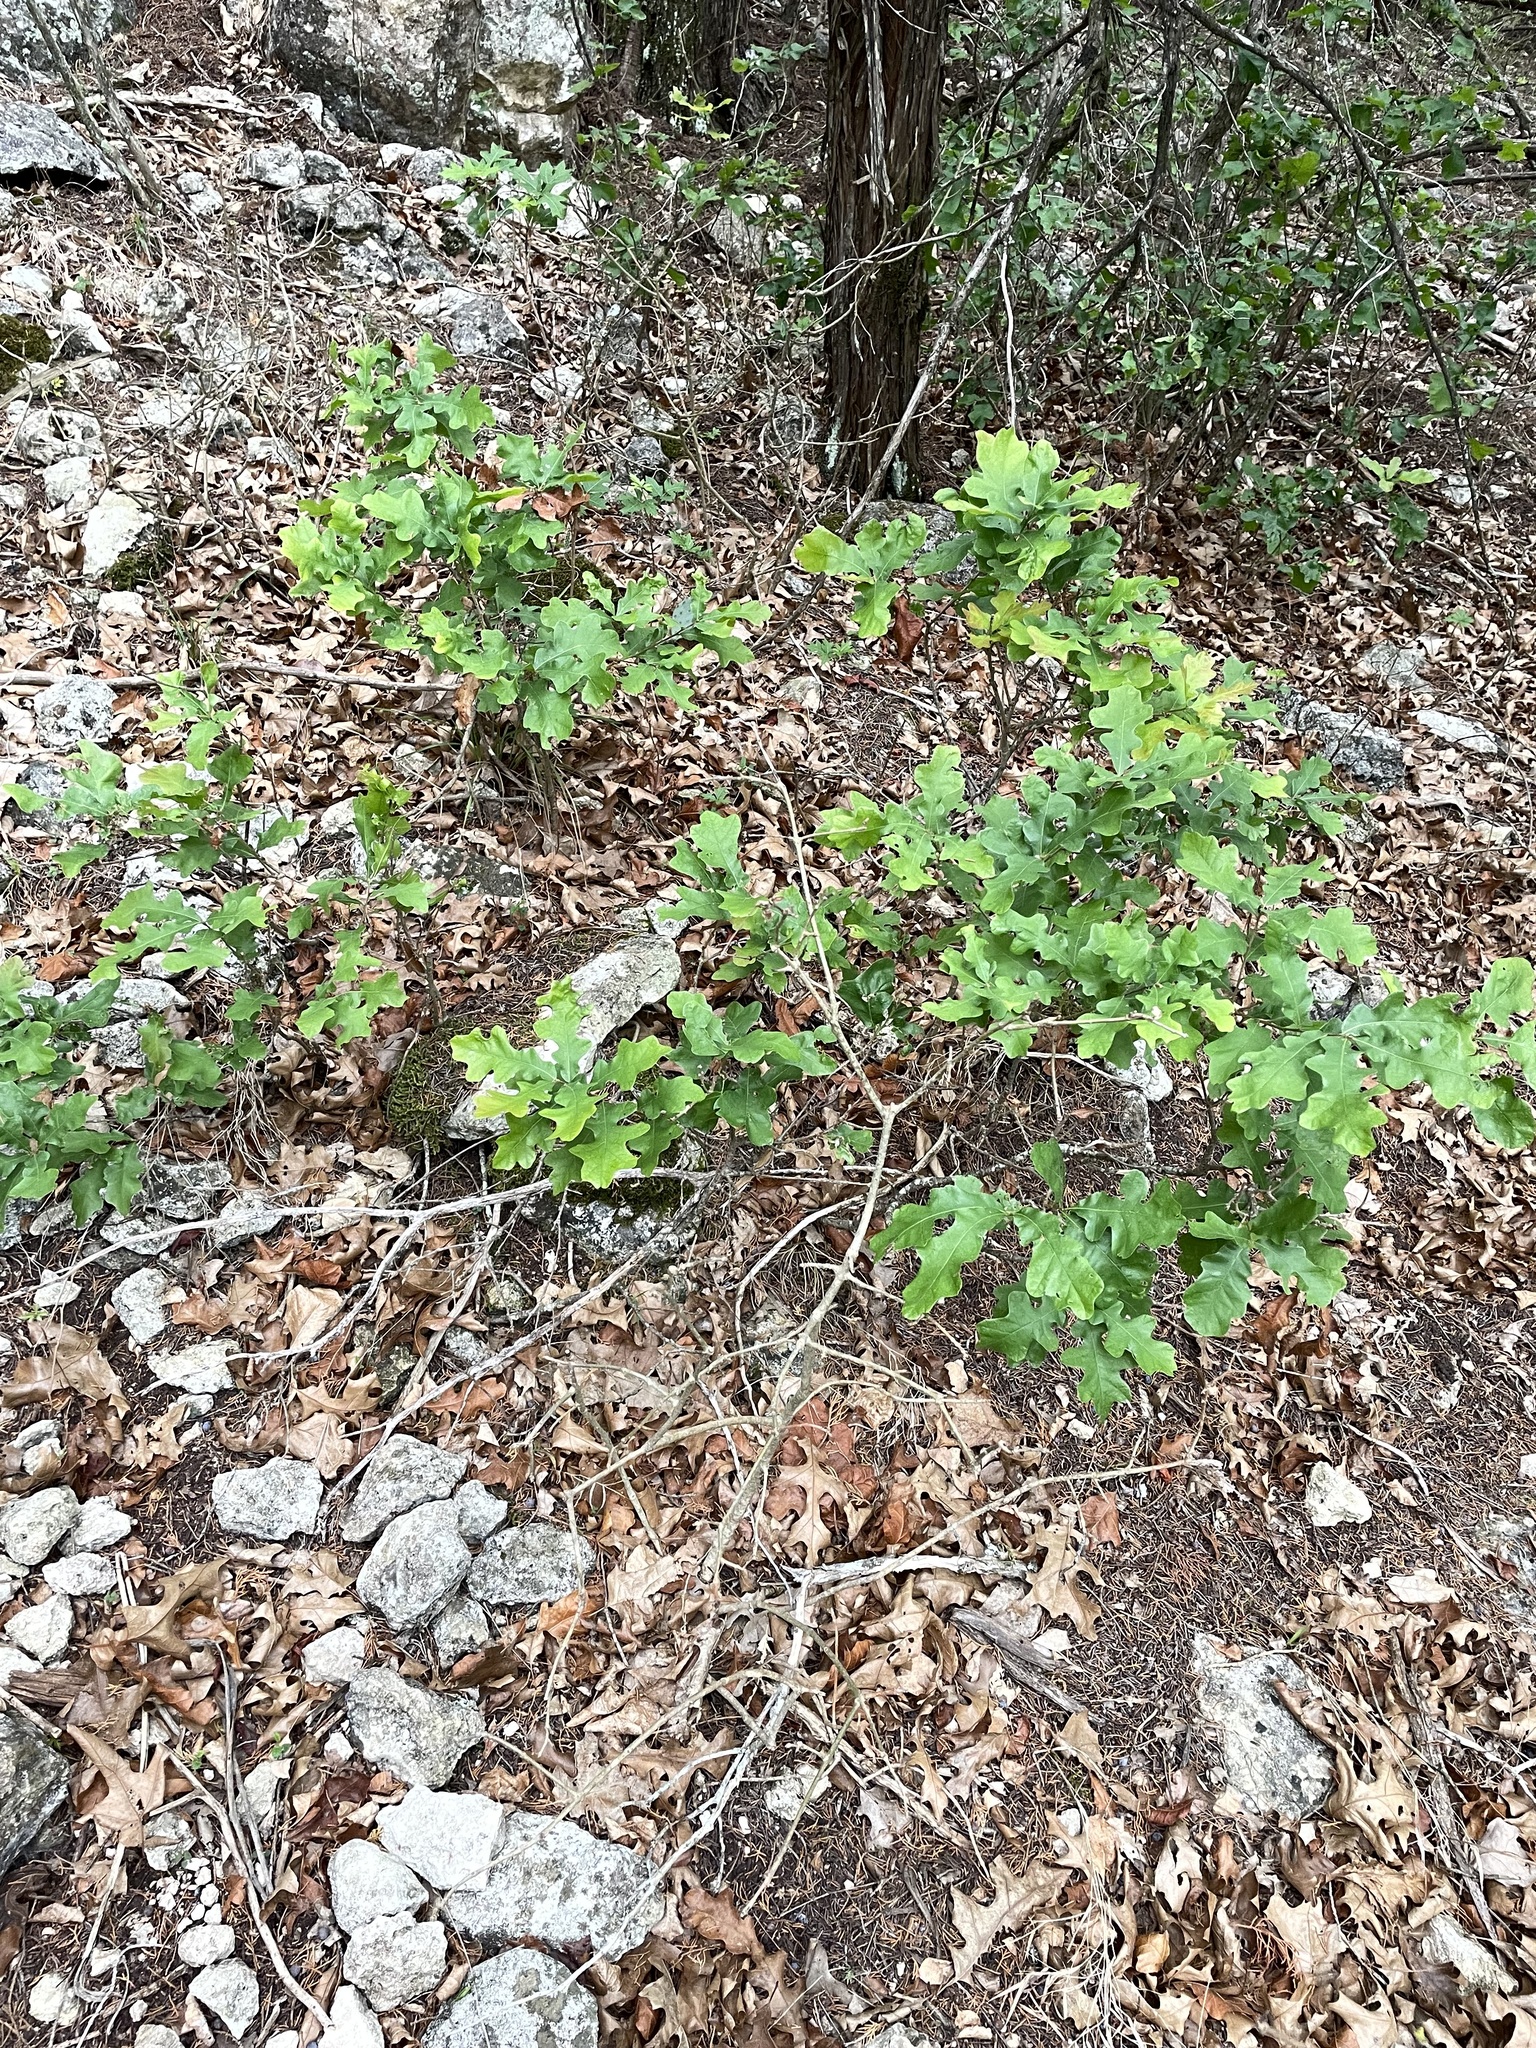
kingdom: Plantae
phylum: Tracheophyta
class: Magnoliopsida
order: Fagales
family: Fagaceae
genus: Quercus
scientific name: Quercus sinuata
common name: Durand oak
